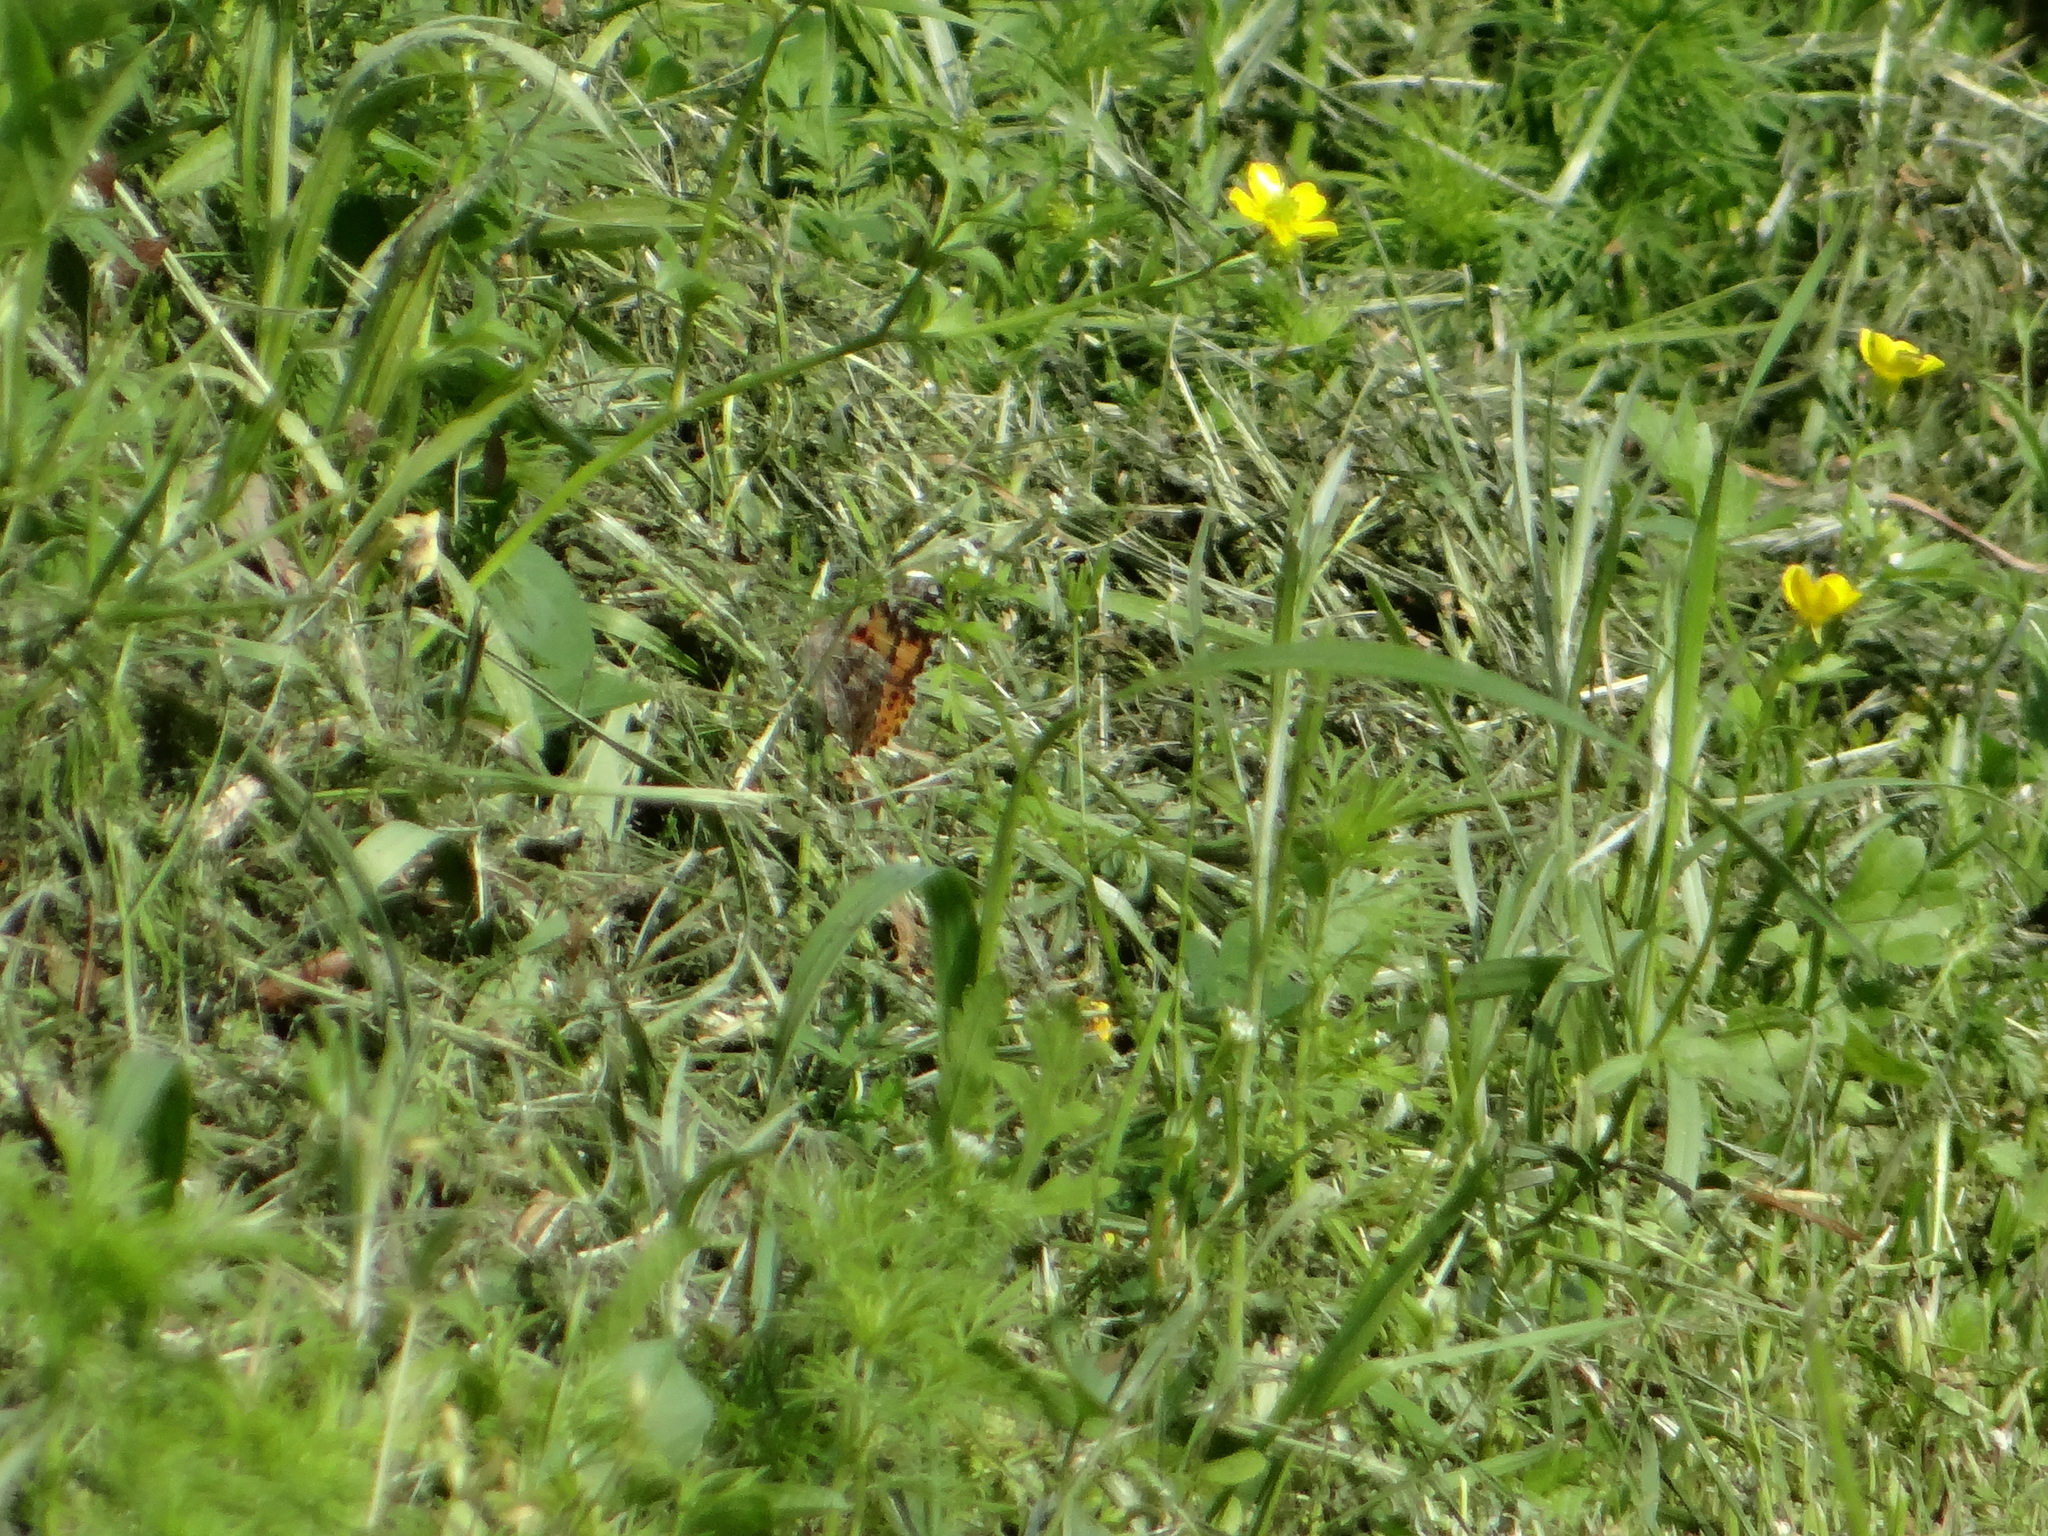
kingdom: Animalia
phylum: Arthropoda
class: Insecta
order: Lepidoptera
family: Nymphalidae
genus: Vanessa
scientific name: Vanessa cardui
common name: Painted lady
